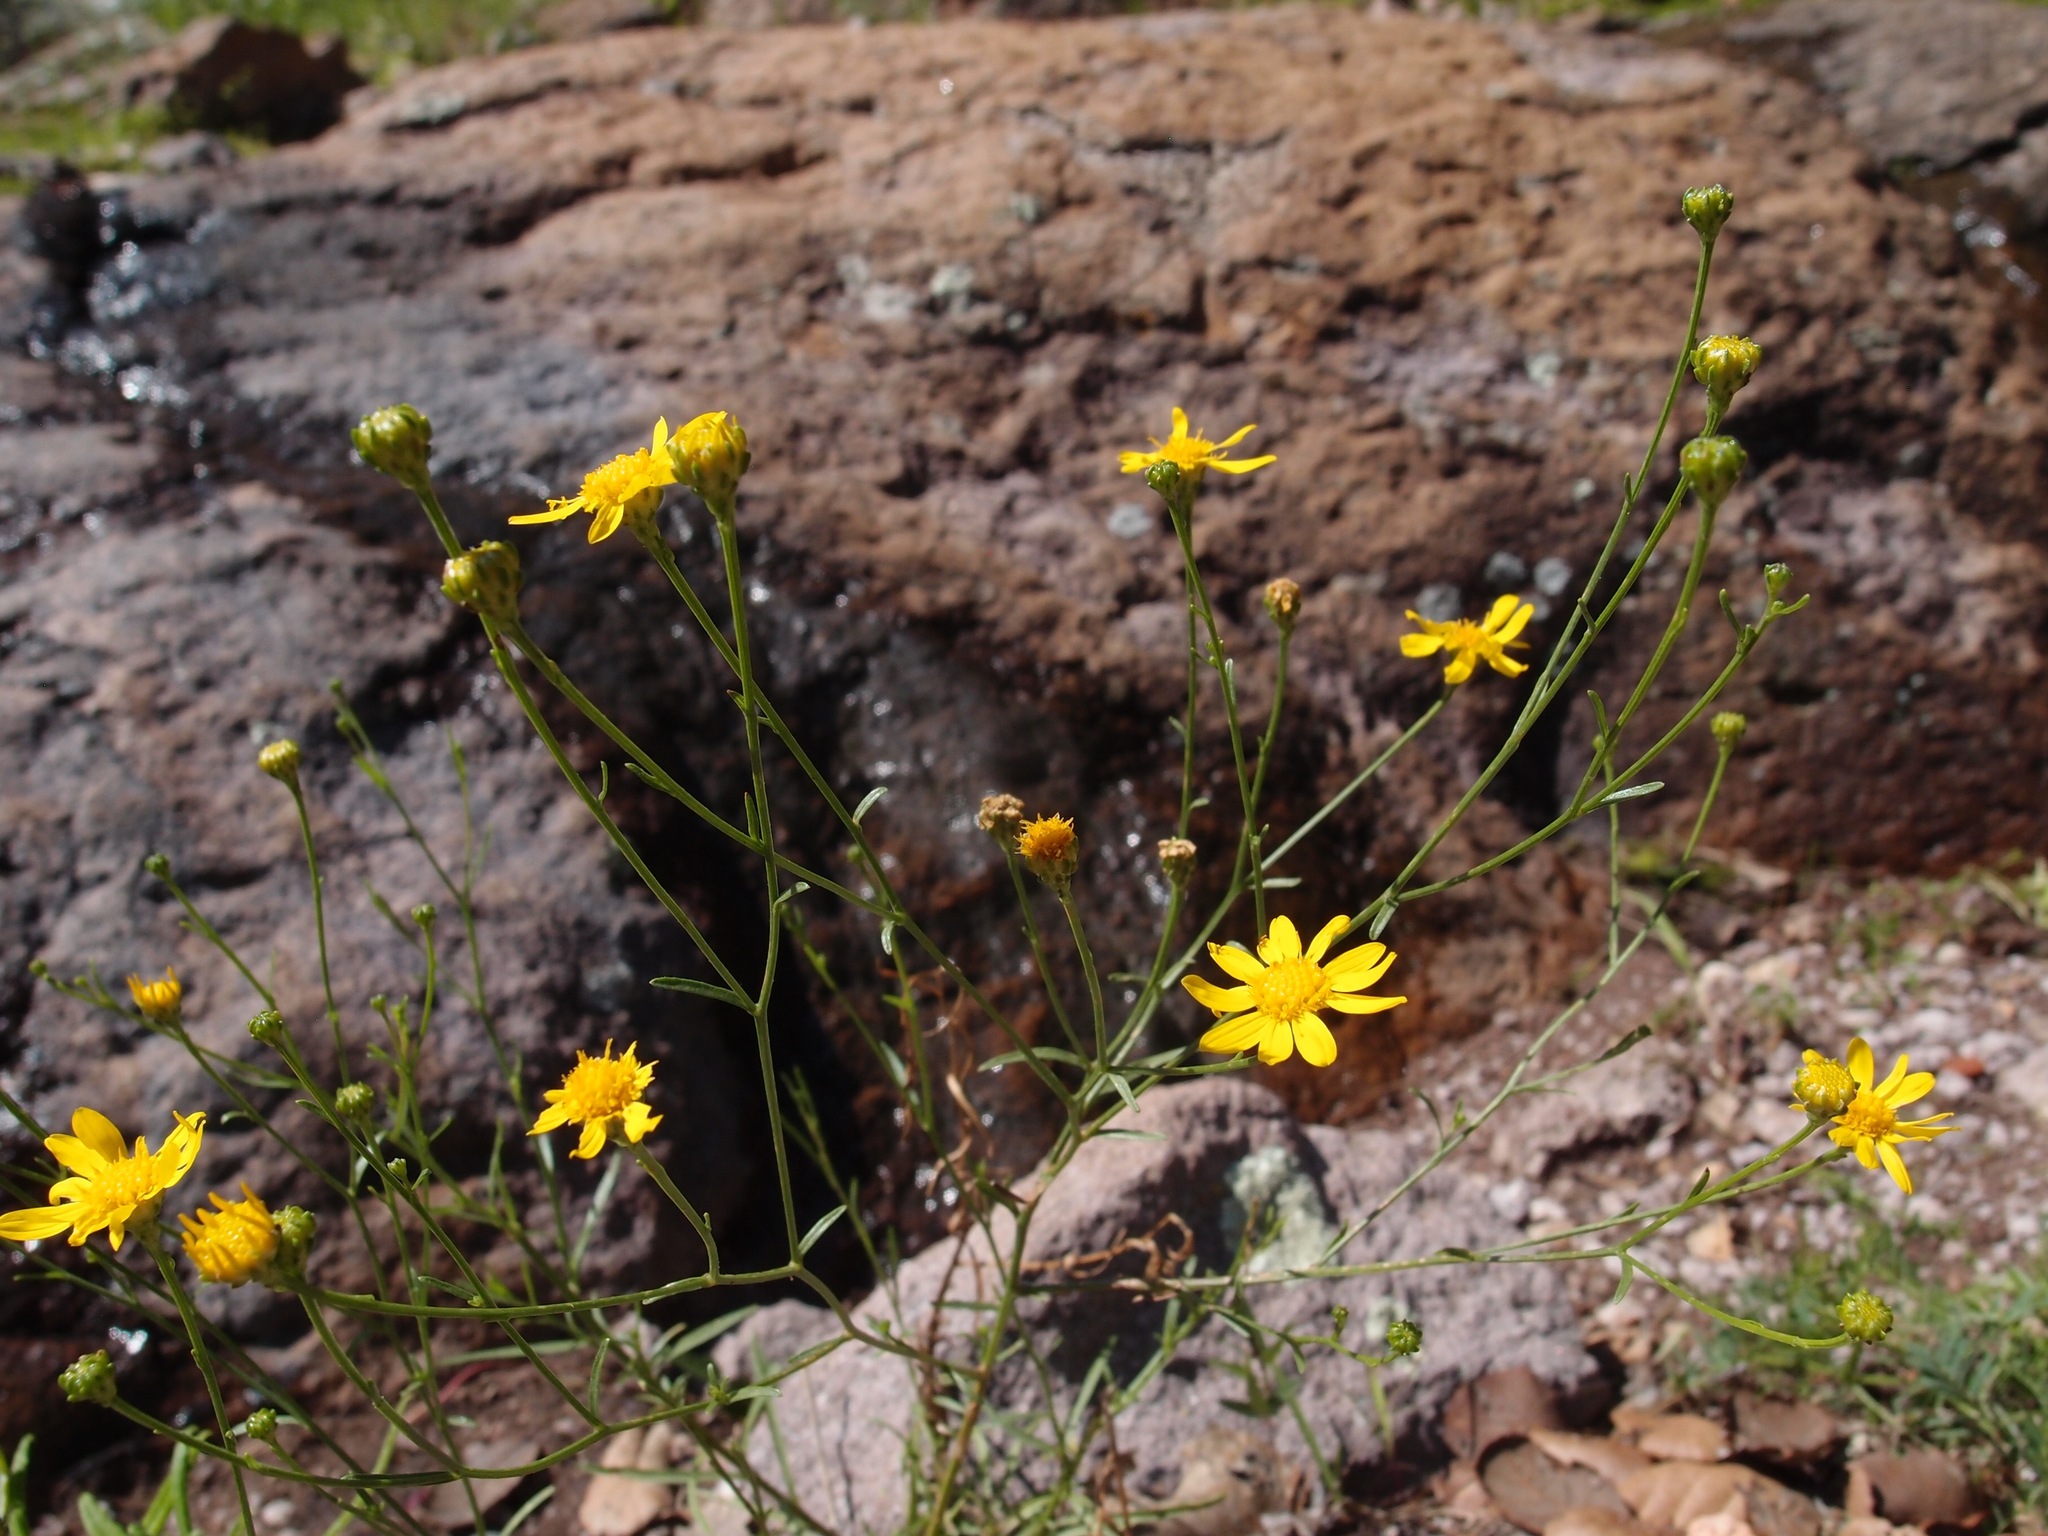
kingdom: Plantae
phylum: Tracheophyta
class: Magnoliopsida
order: Asterales
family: Asteraceae
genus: Gutierrezia
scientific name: Gutierrezia wrightii
